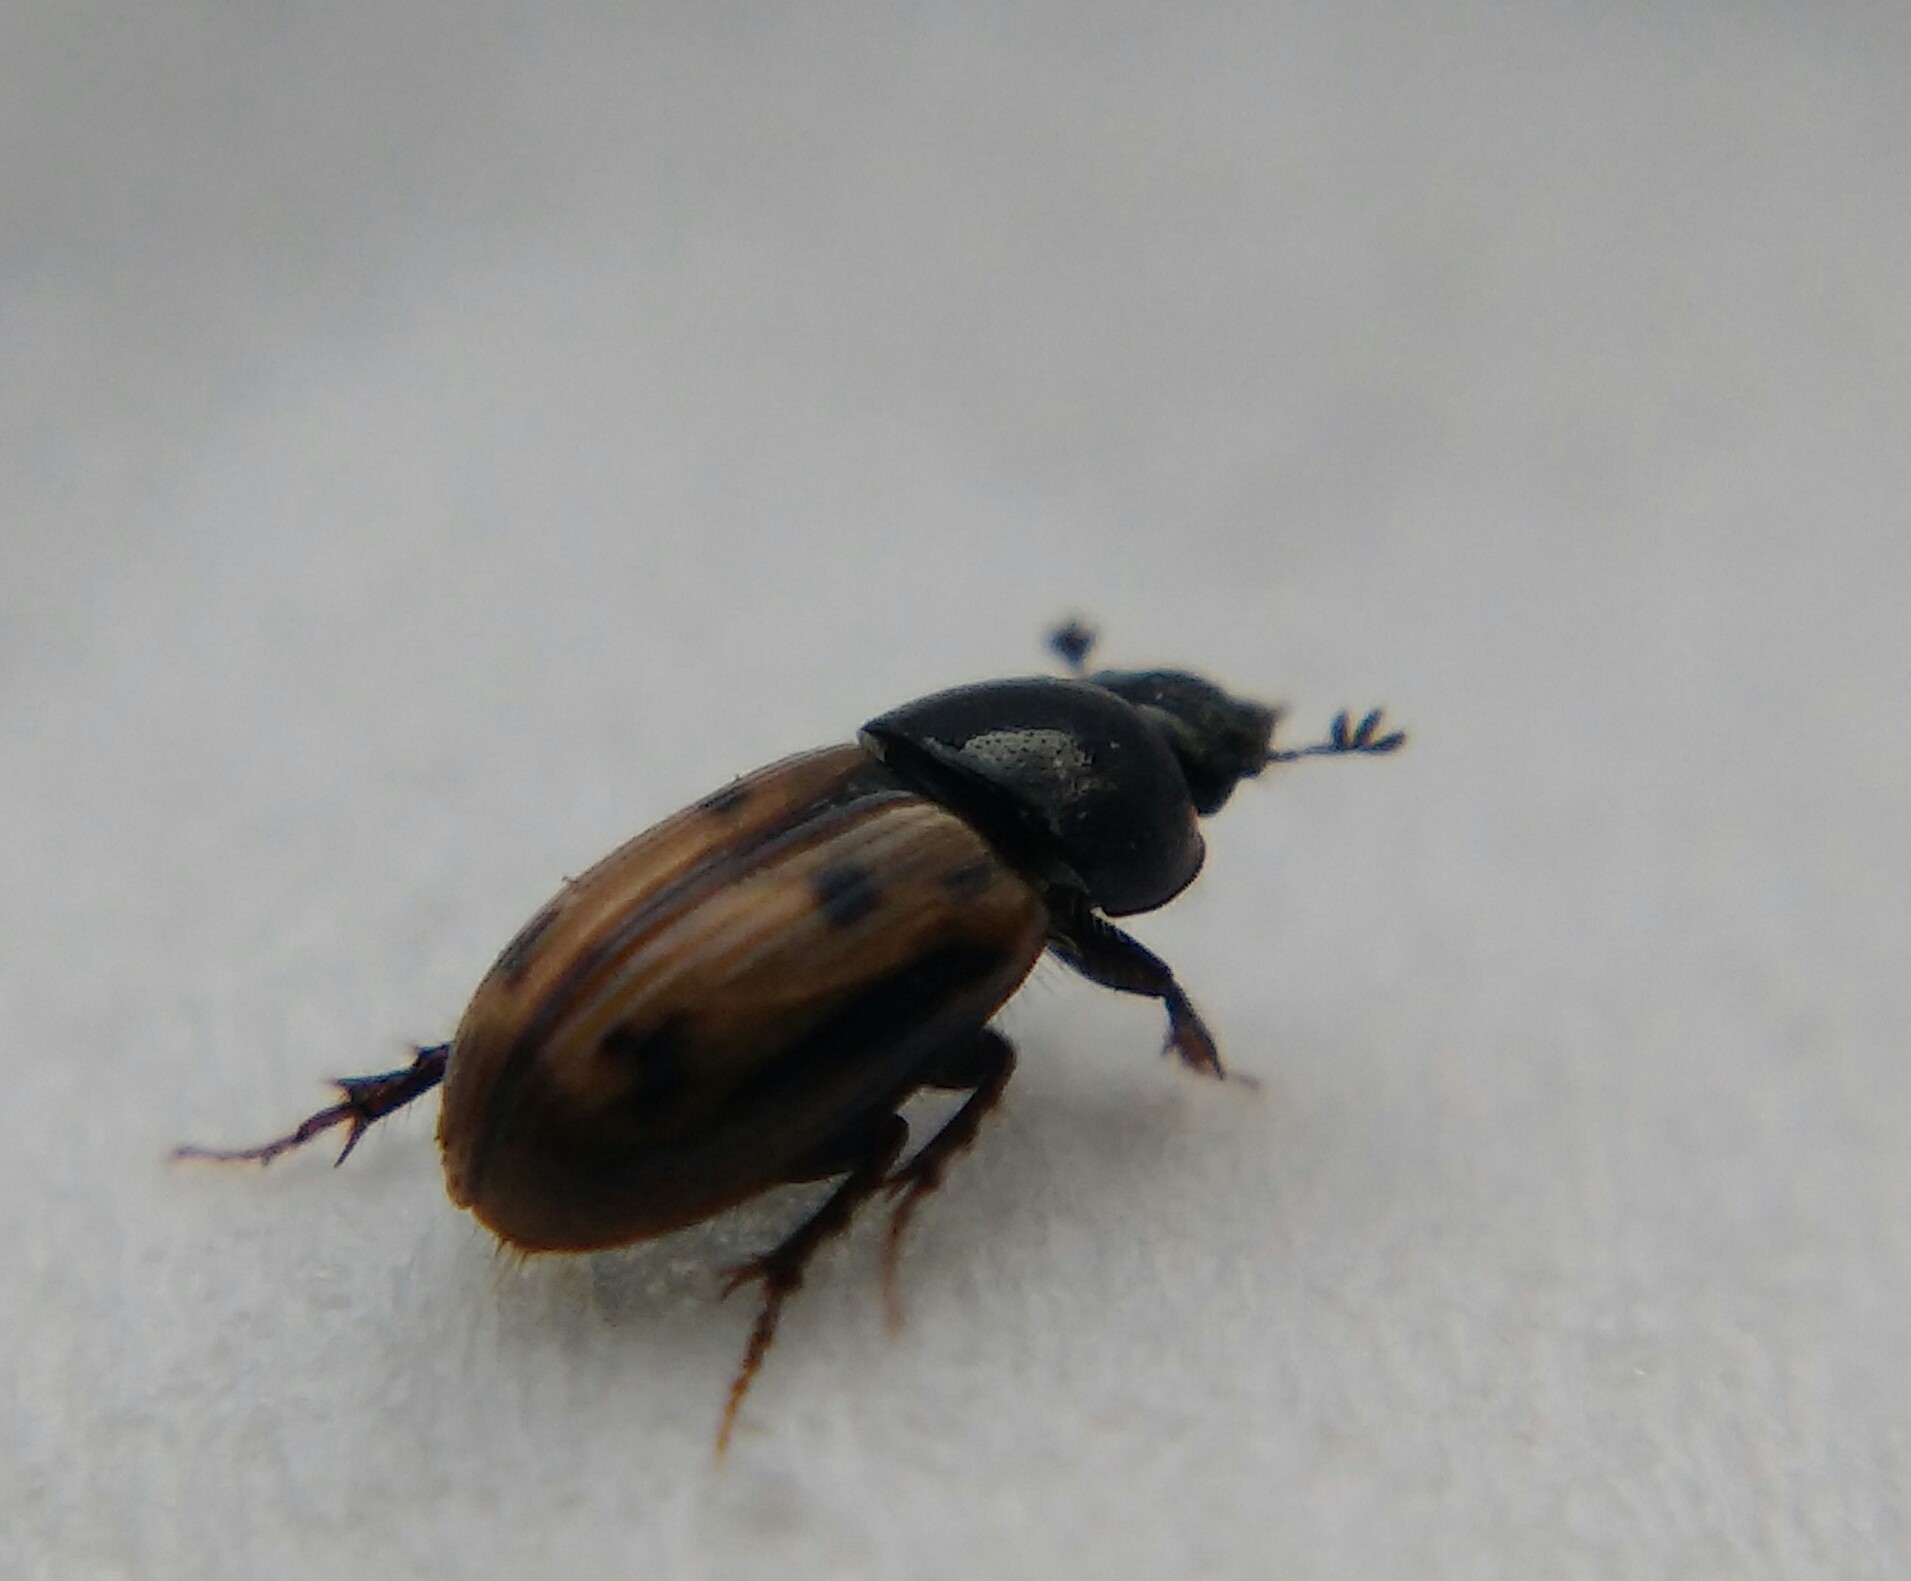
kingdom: Animalia
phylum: Arthropoda
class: Insecta
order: Coleoptera
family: Scarabaeidae
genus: Chilothorax
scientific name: Chilothorax distinctus
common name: Maculated dung beetle
